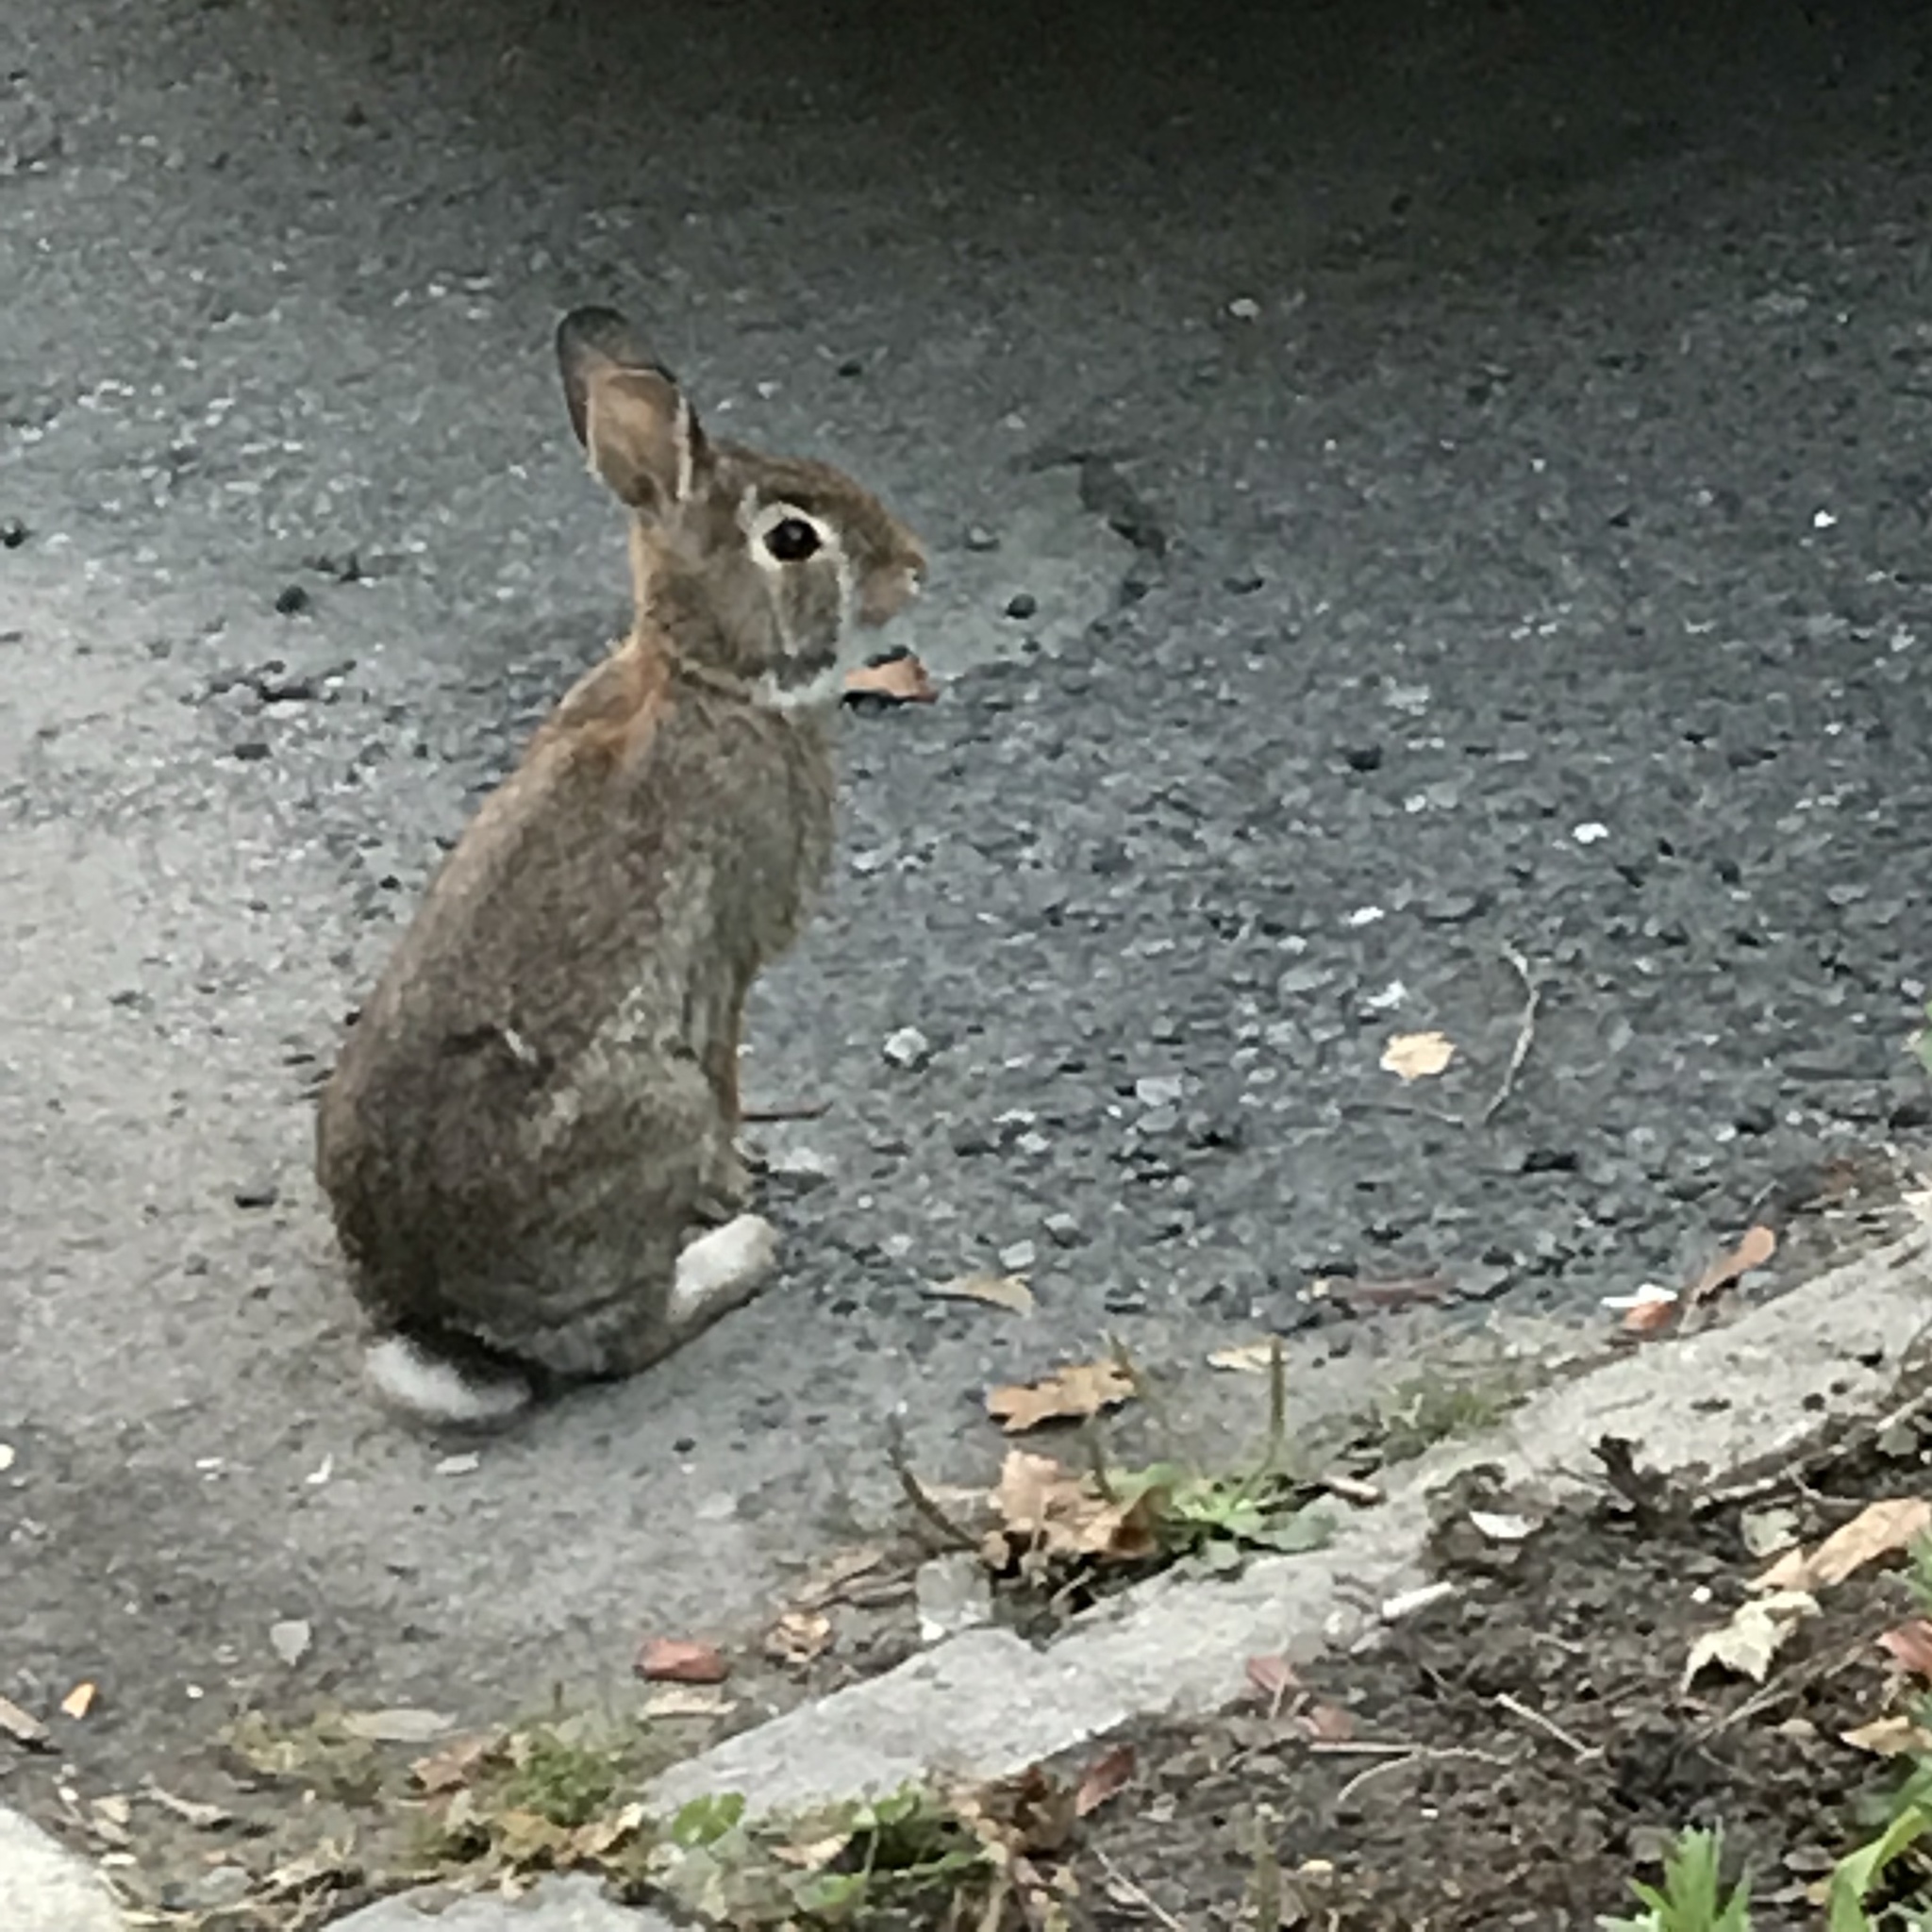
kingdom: Animalia
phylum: Chordata
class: Mammalia
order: Lagomorpha
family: Leporidae
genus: Sylvilagus
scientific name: Sylvilagus floridanus
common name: Eastern cottontail
